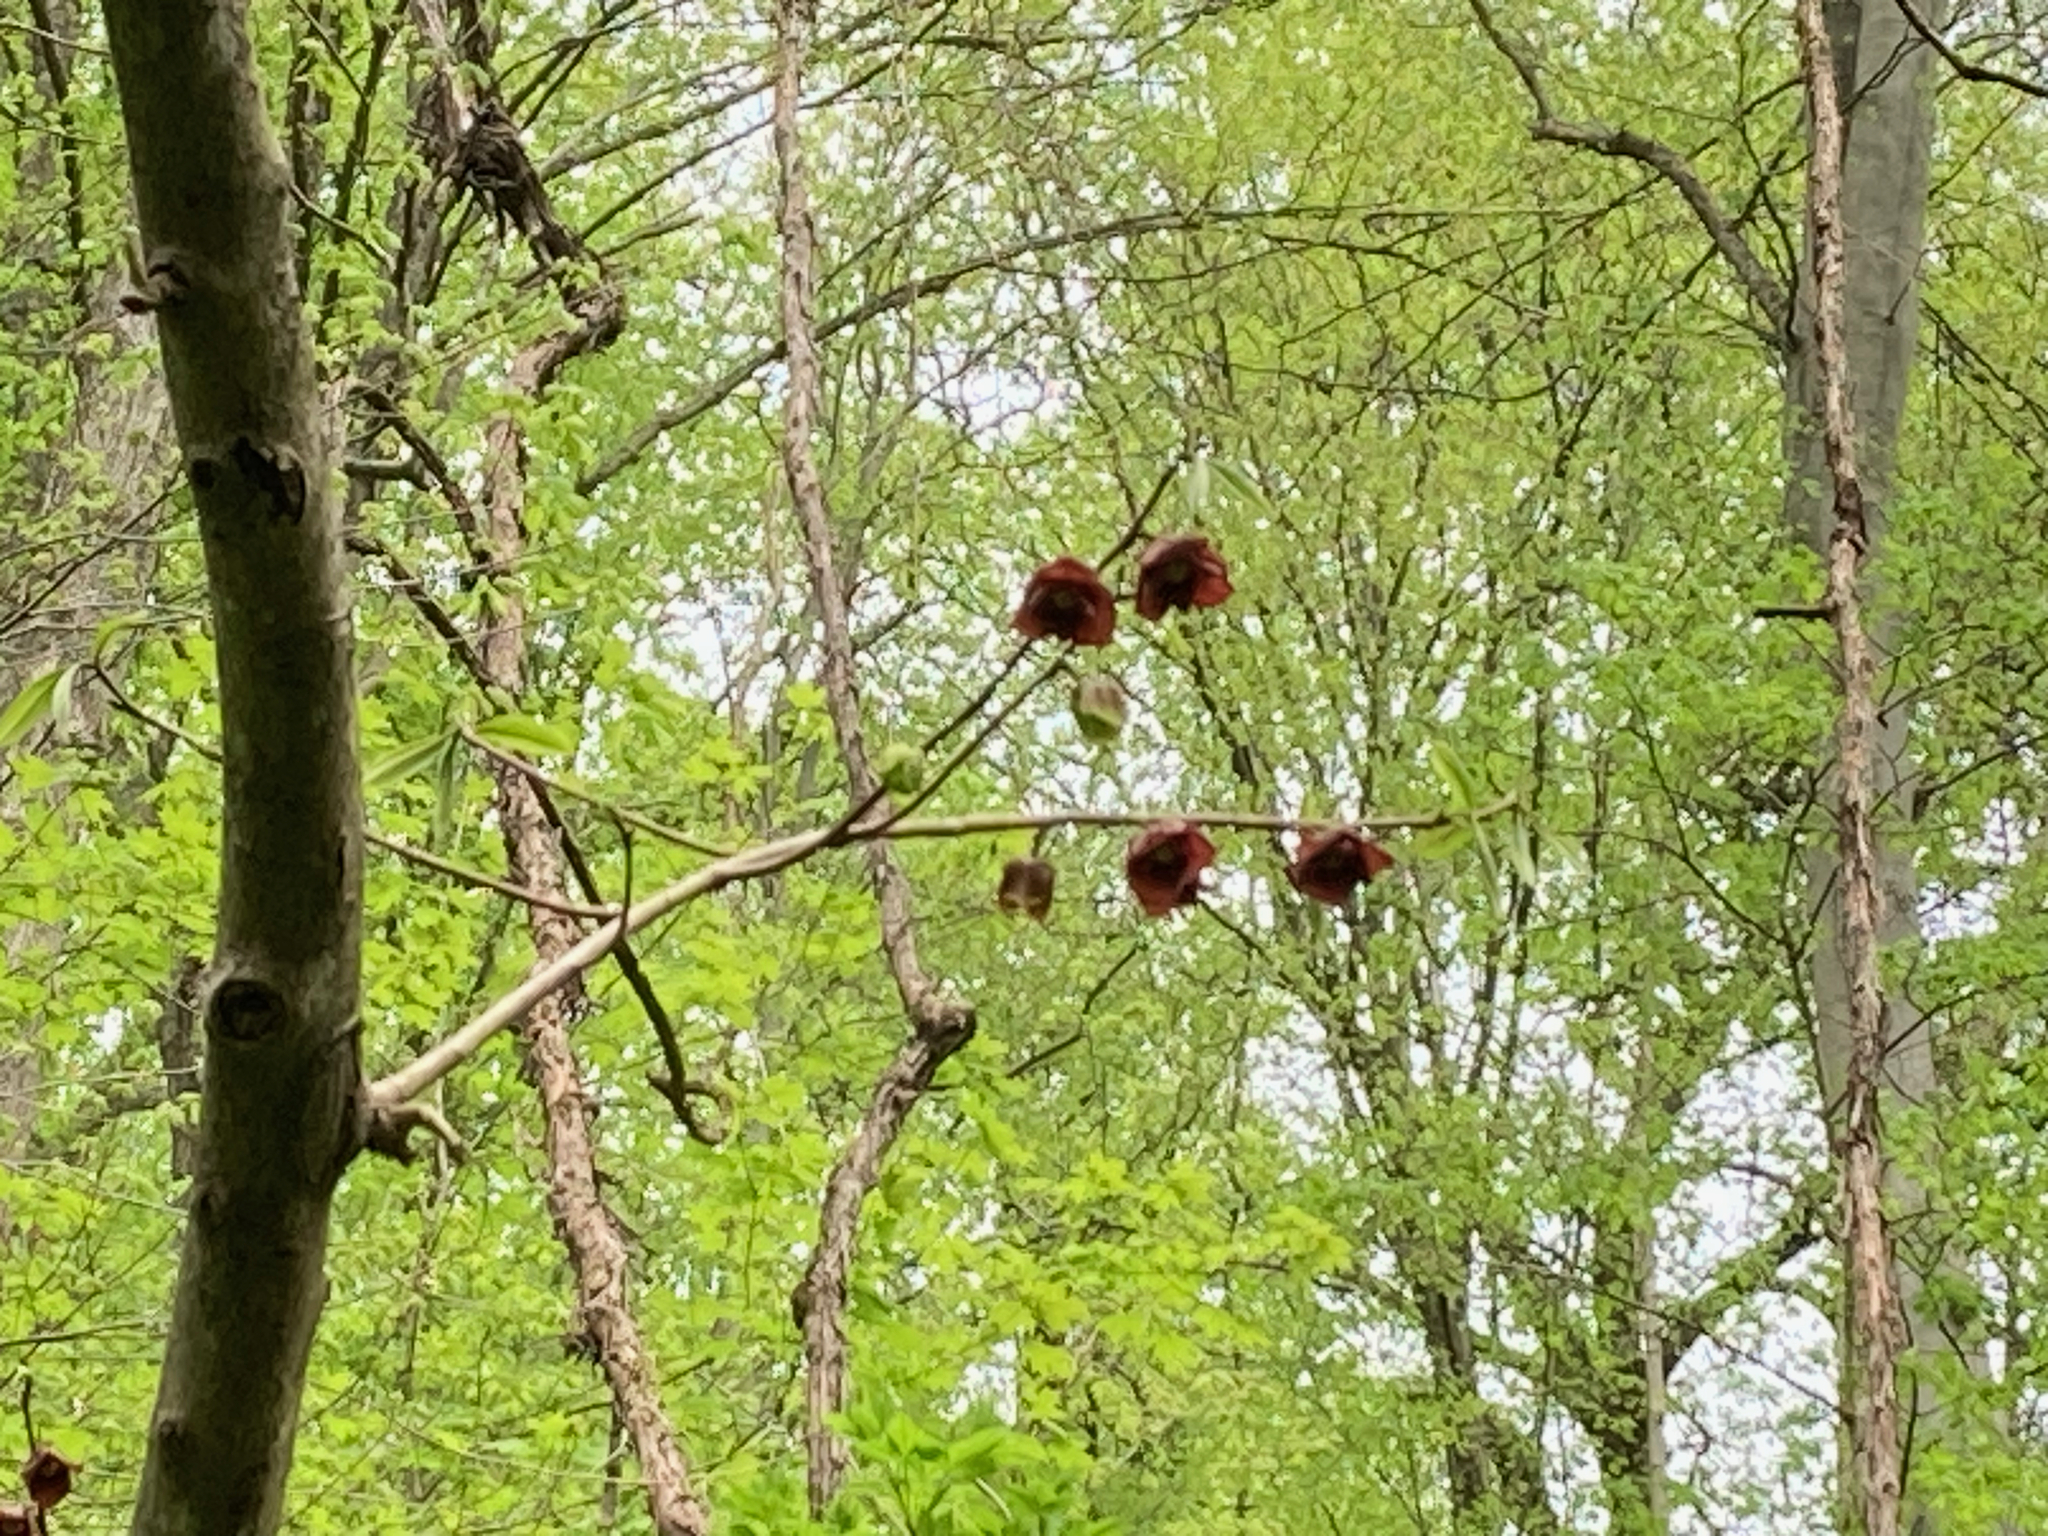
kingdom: Plantae
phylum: Tracheophyta
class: Magnoliopsida
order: Magnoliales
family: Annonaceae
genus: Asimina
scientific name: Asimina triloba
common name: Dog-banana
